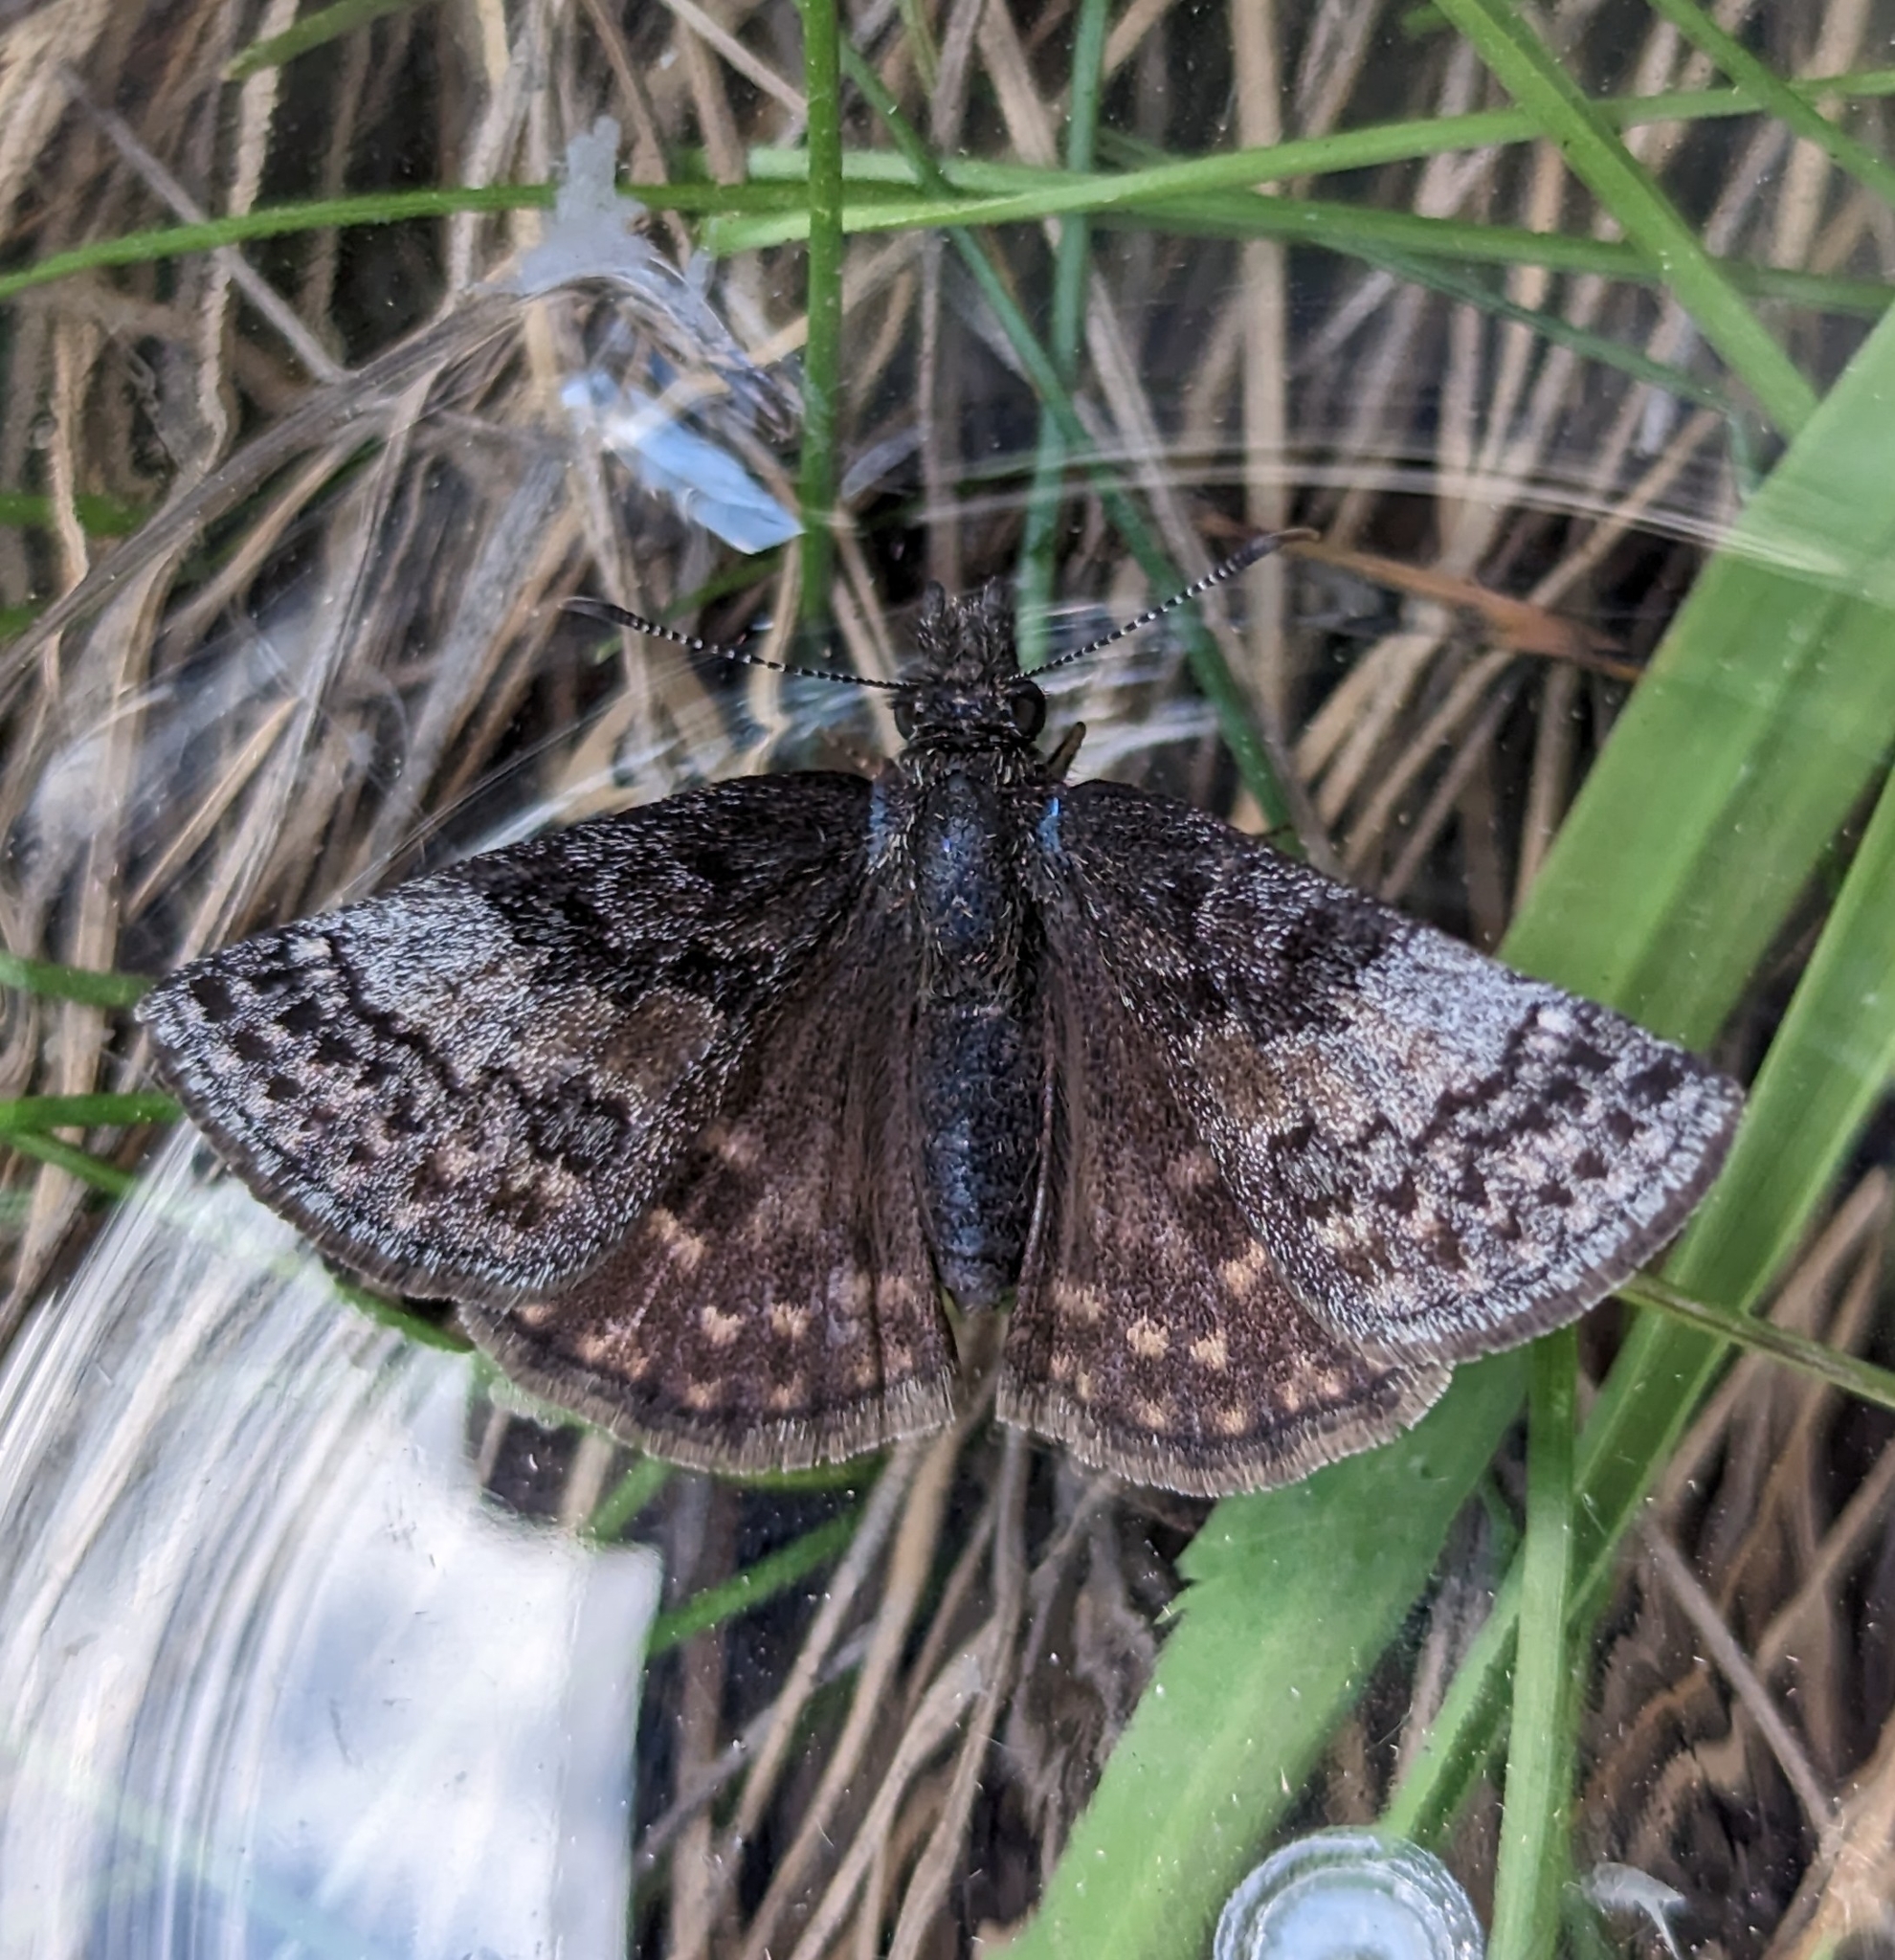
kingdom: Animalia
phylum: Arthropoda
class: Insecta
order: Lepidoptera
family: Hesperiidae
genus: Erynnis
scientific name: Erynnis icelus
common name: Dreamy duskywing
